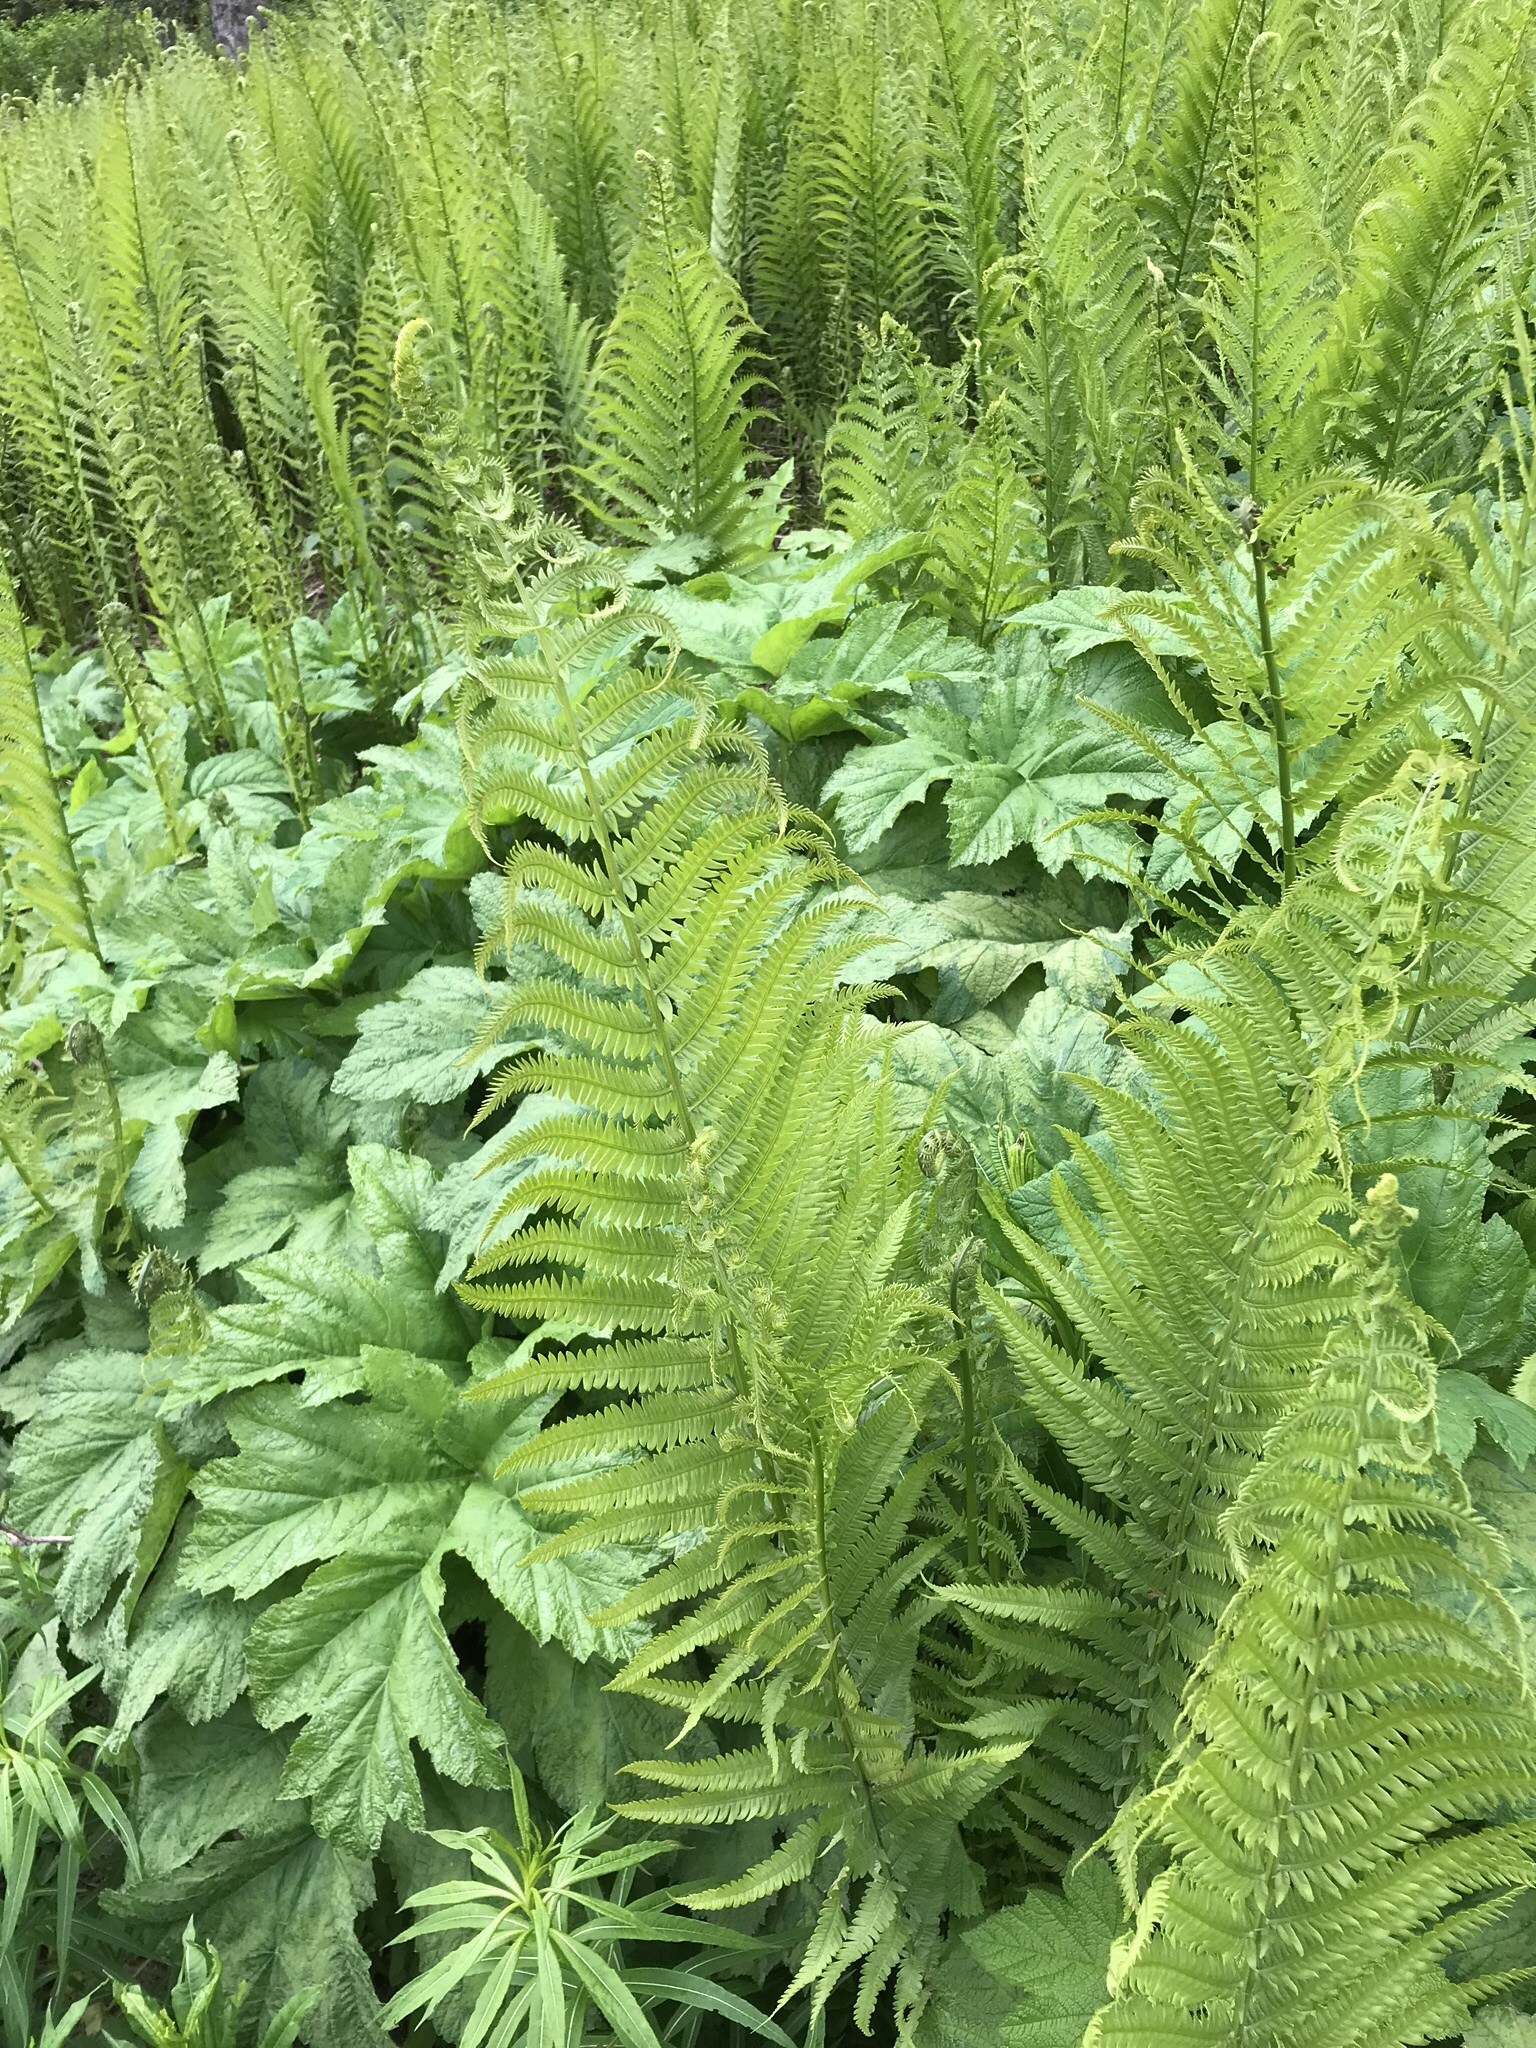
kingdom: Plantae
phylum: Tracheophyta
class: Polypodiopsida
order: Polypodiales
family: Onocleaceae
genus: Matteuccia
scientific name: Matteuccia struthiopteris
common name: Ostrich fern
